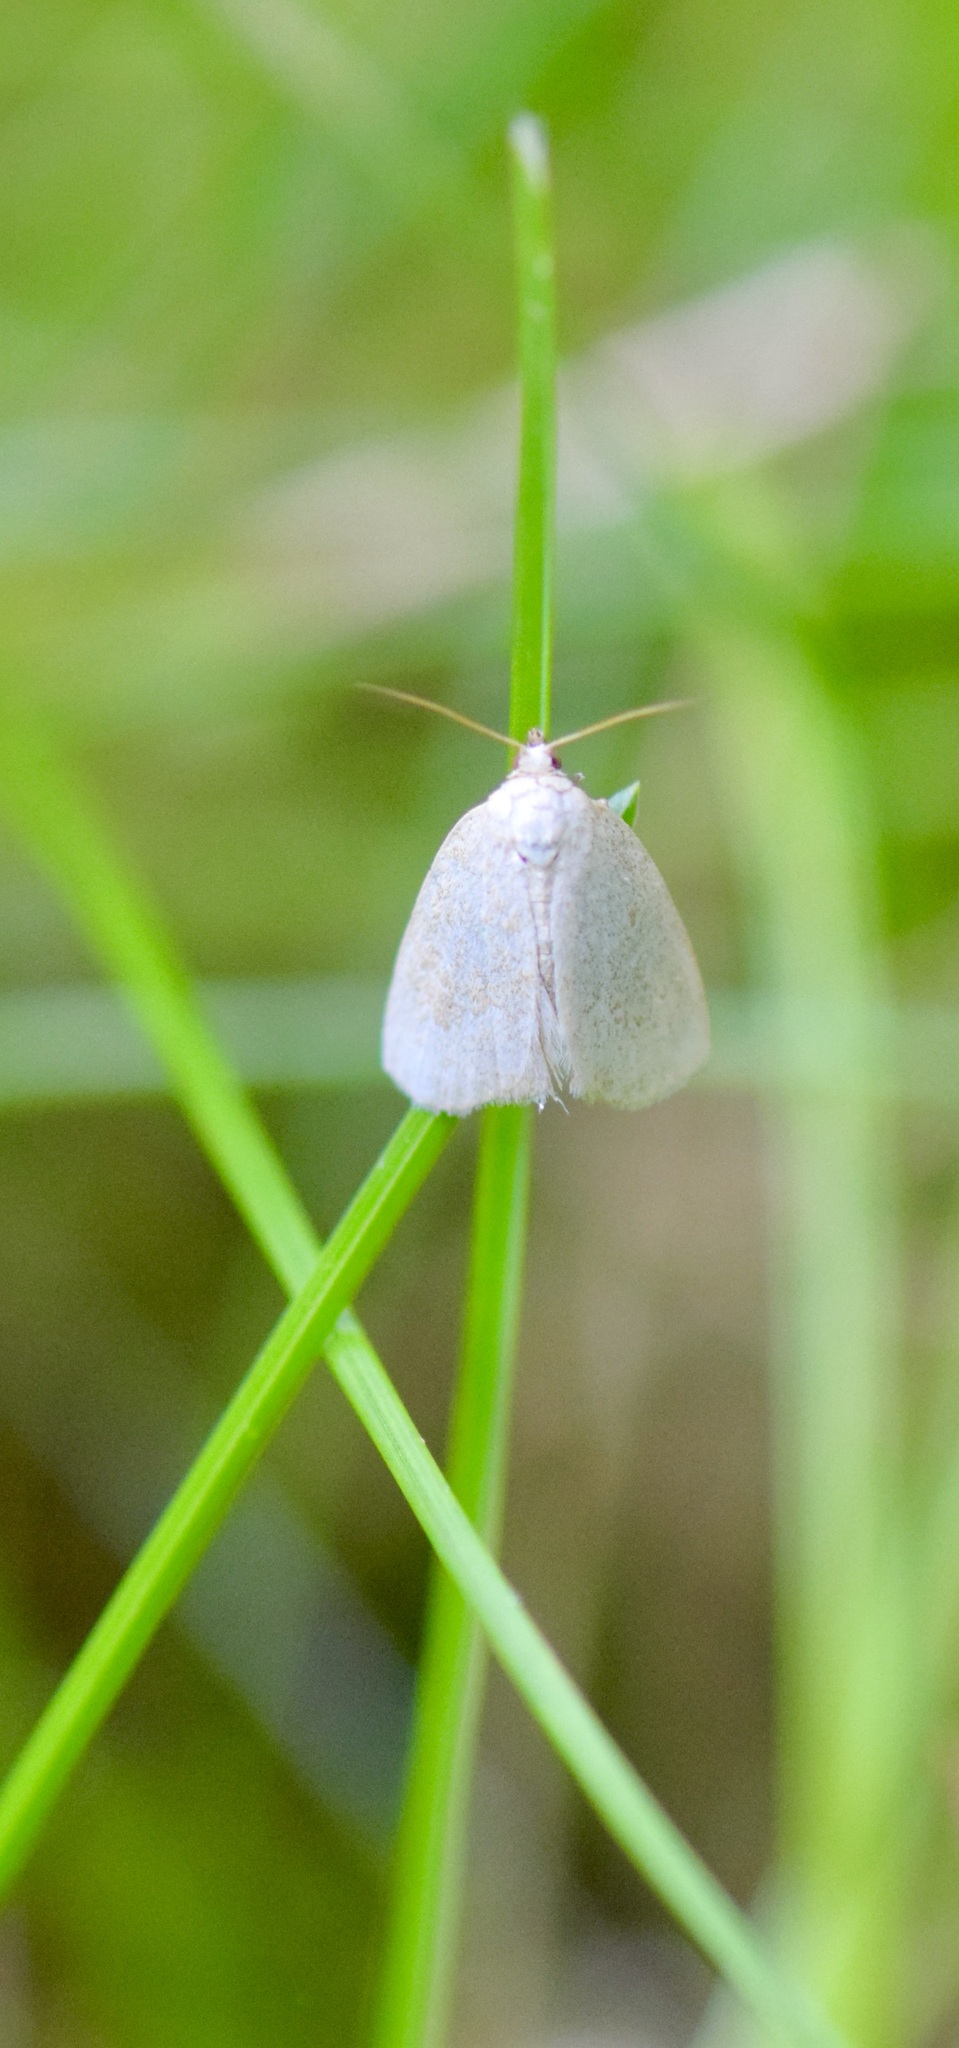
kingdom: Animalia
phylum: Arthropoda
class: Insecta
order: Lepidoptera
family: Noctuidae
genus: Protodeltote
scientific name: Protodeltote albidula
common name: Pale glyph
